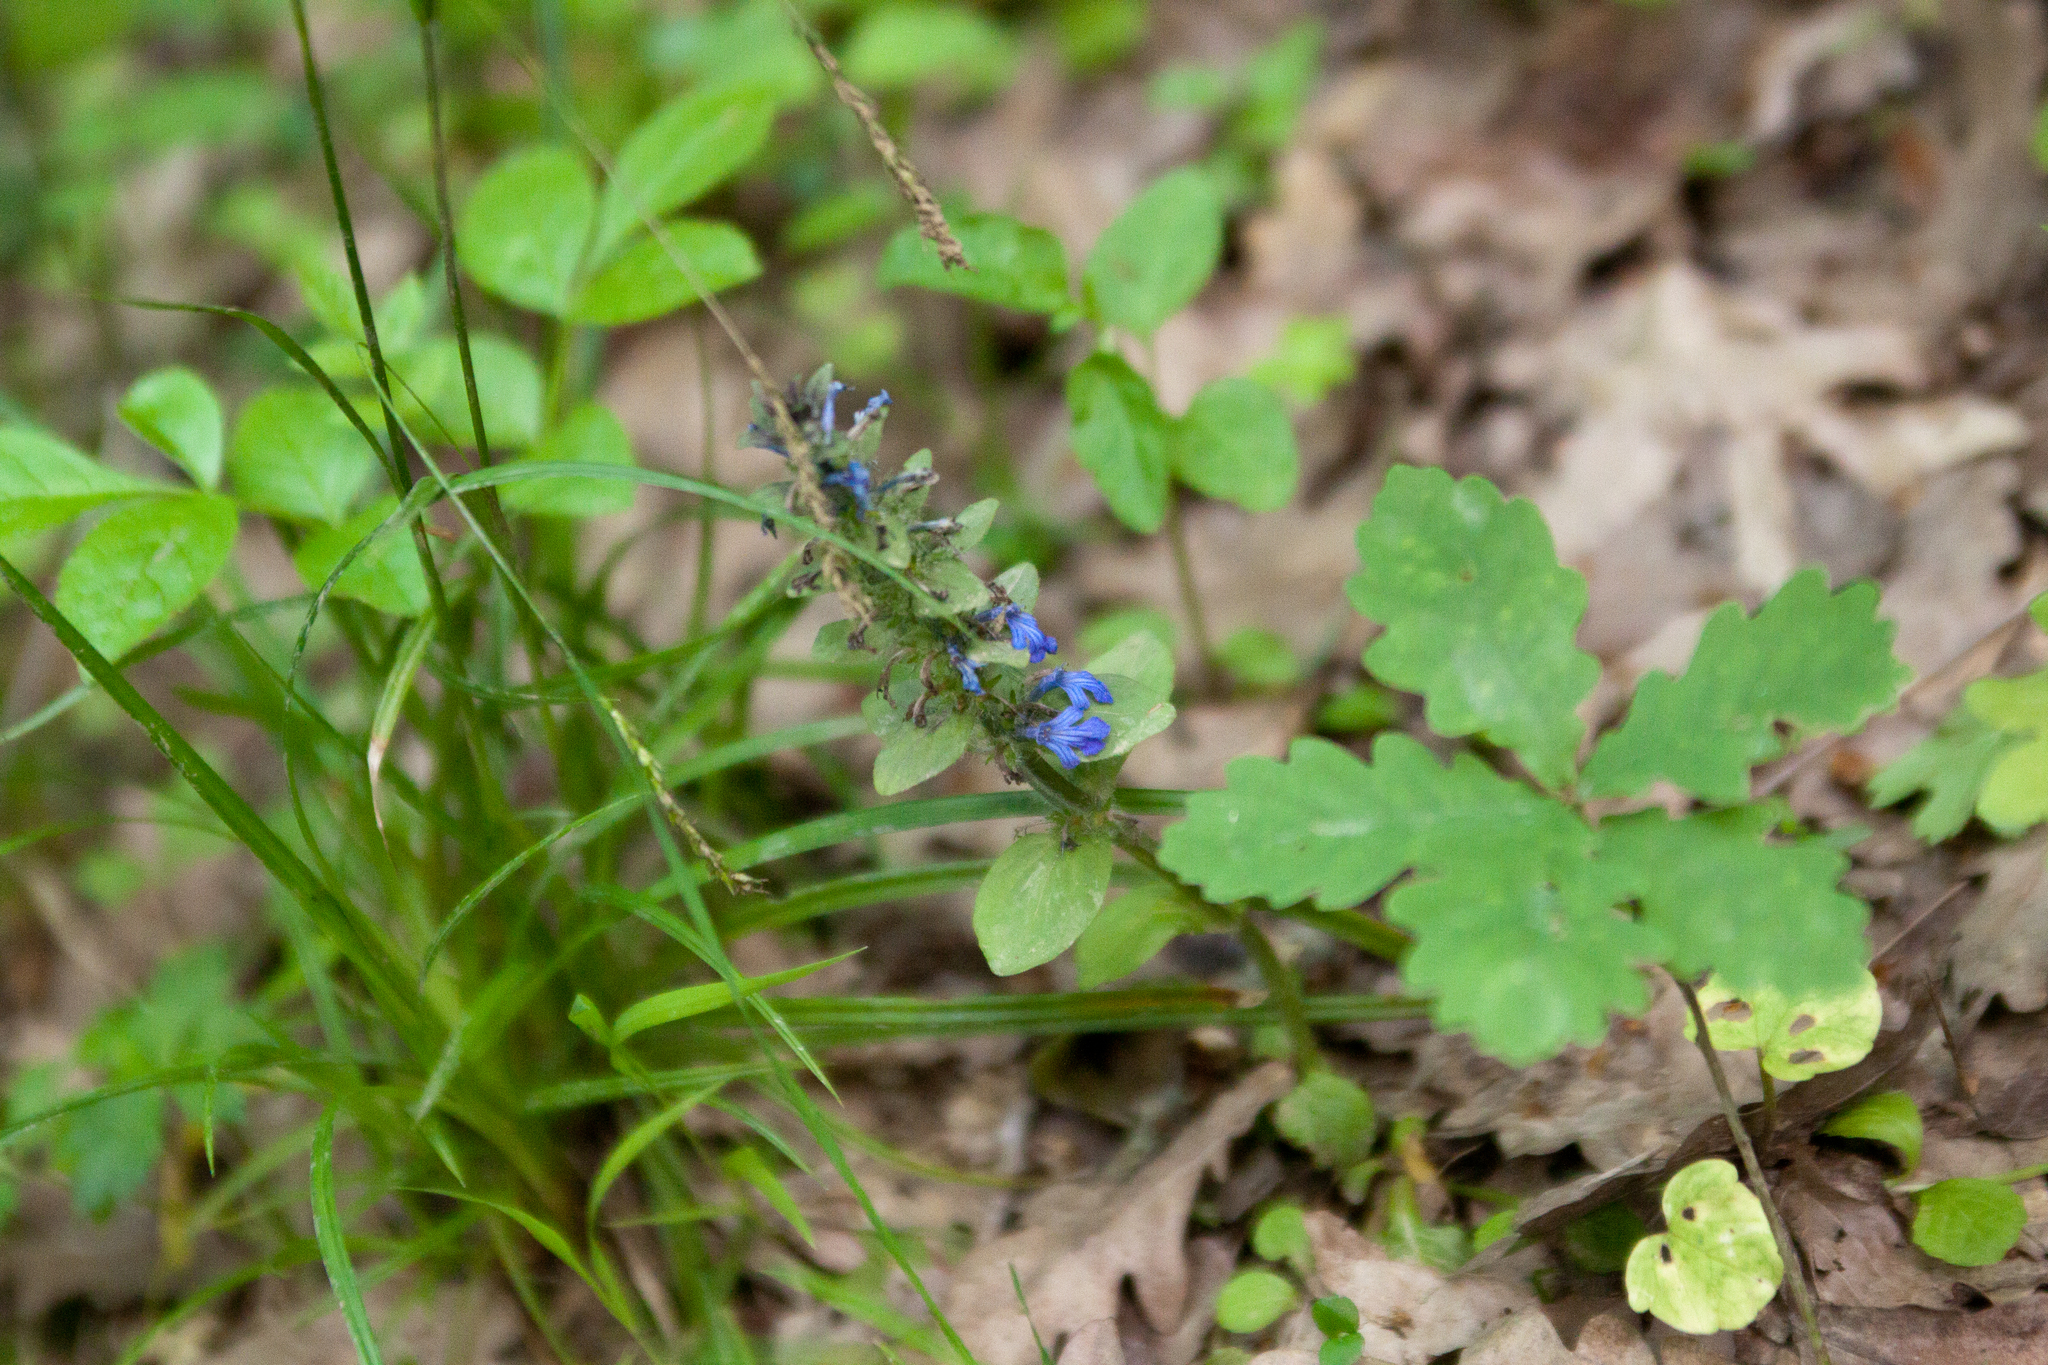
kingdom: Plantae
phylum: Tracheophyta
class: Magnoliopsida
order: Lamiales
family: Lamiaceae
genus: Ajuga
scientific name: Ajuga reptans
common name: Bugle
